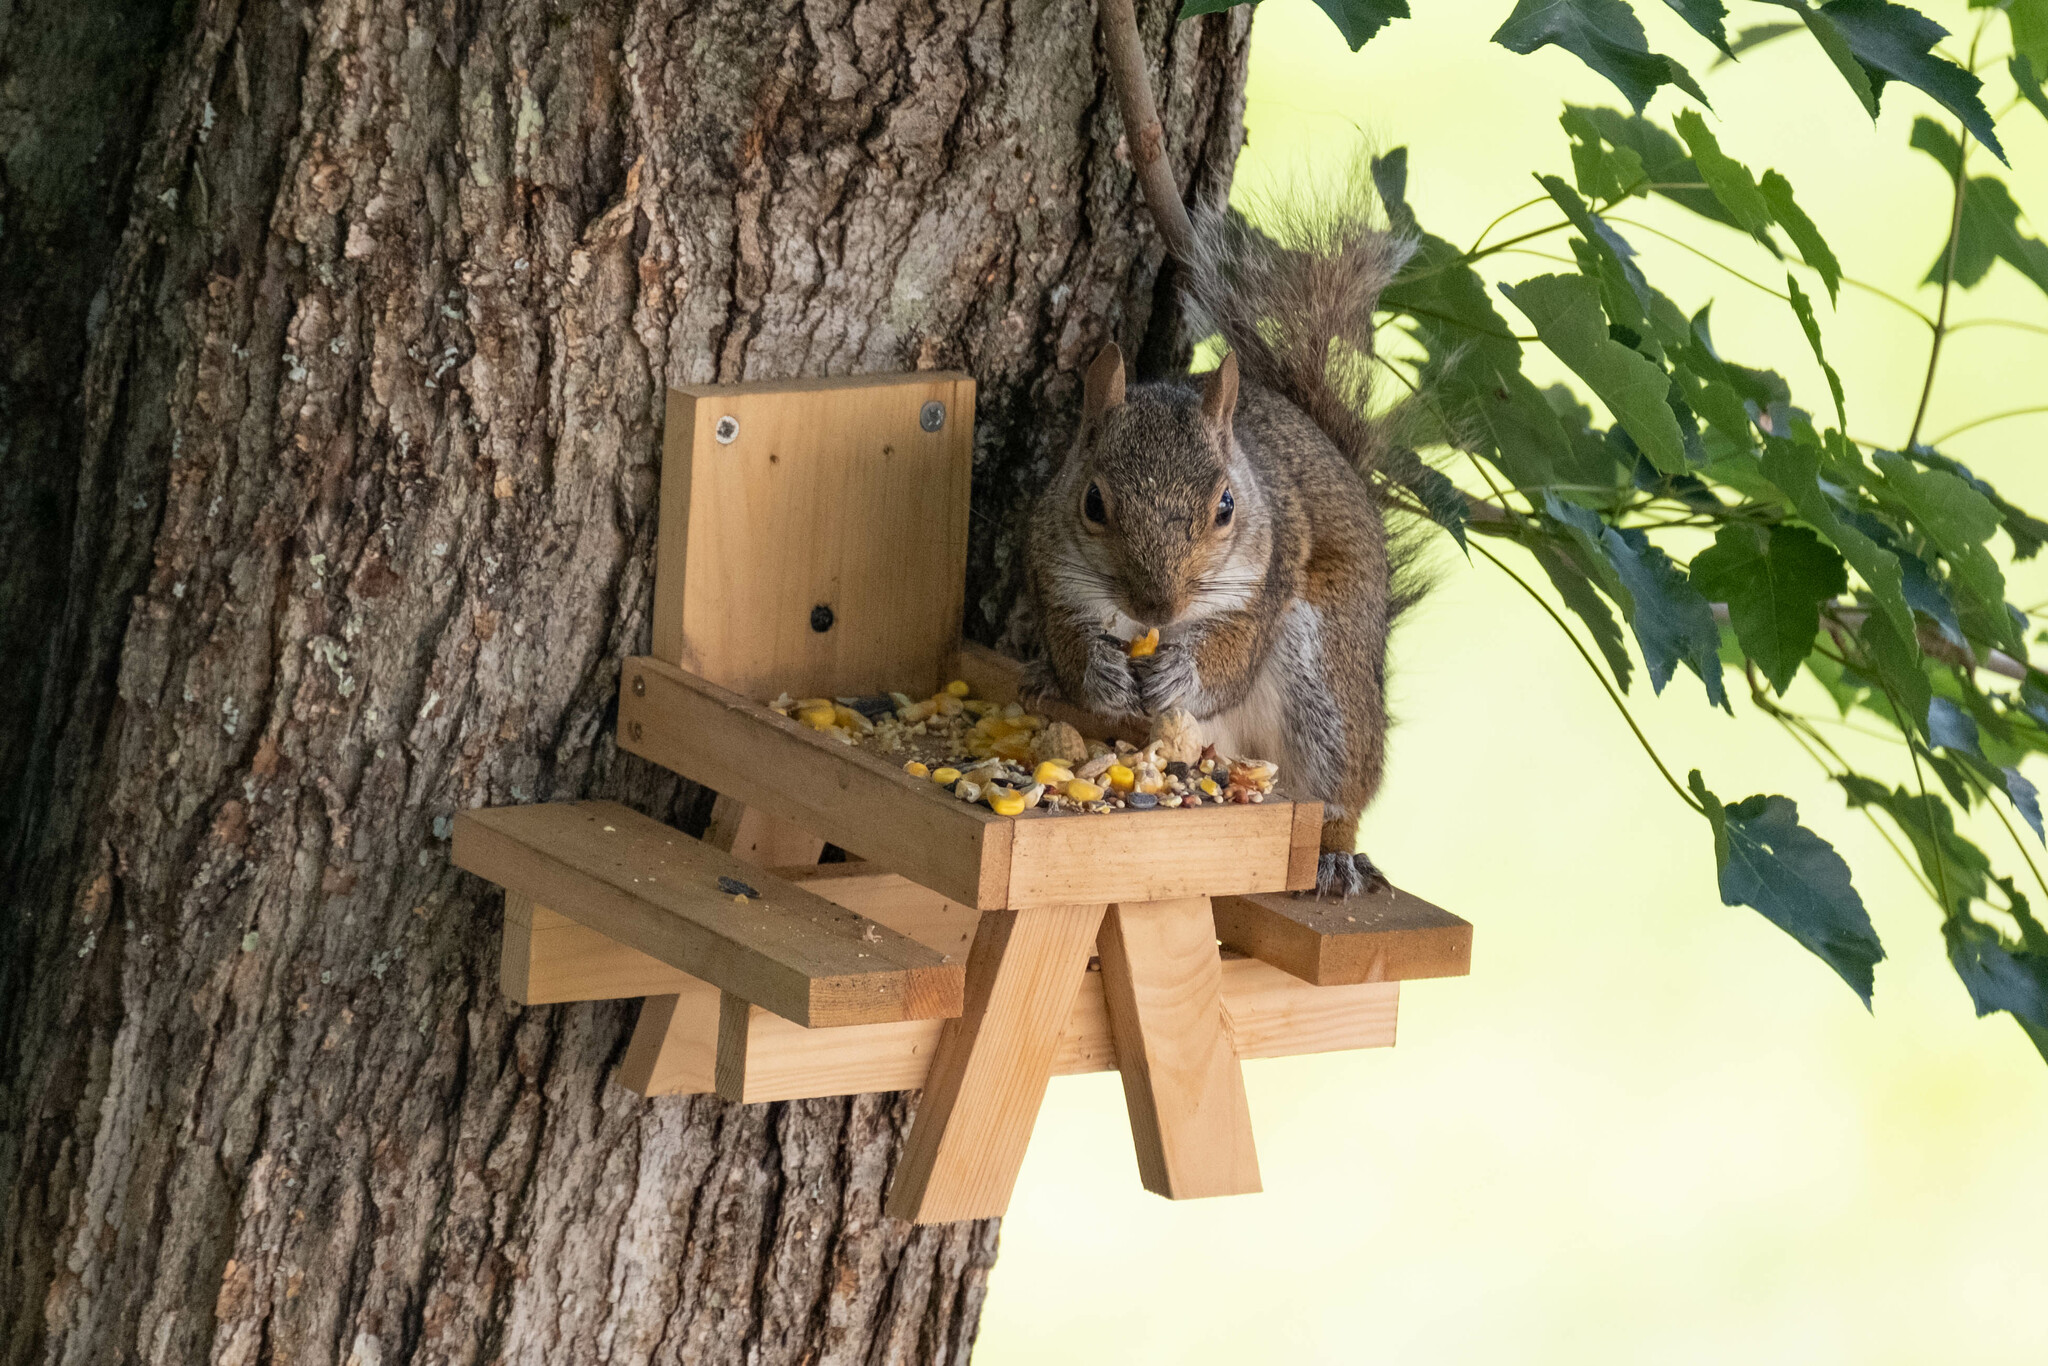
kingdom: Animalia
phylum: Chordata
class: Mammalia
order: Rodentia
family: Sciuridae
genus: Sciurus
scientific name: Sciurus carolinensis
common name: Eastern gray squirrel
